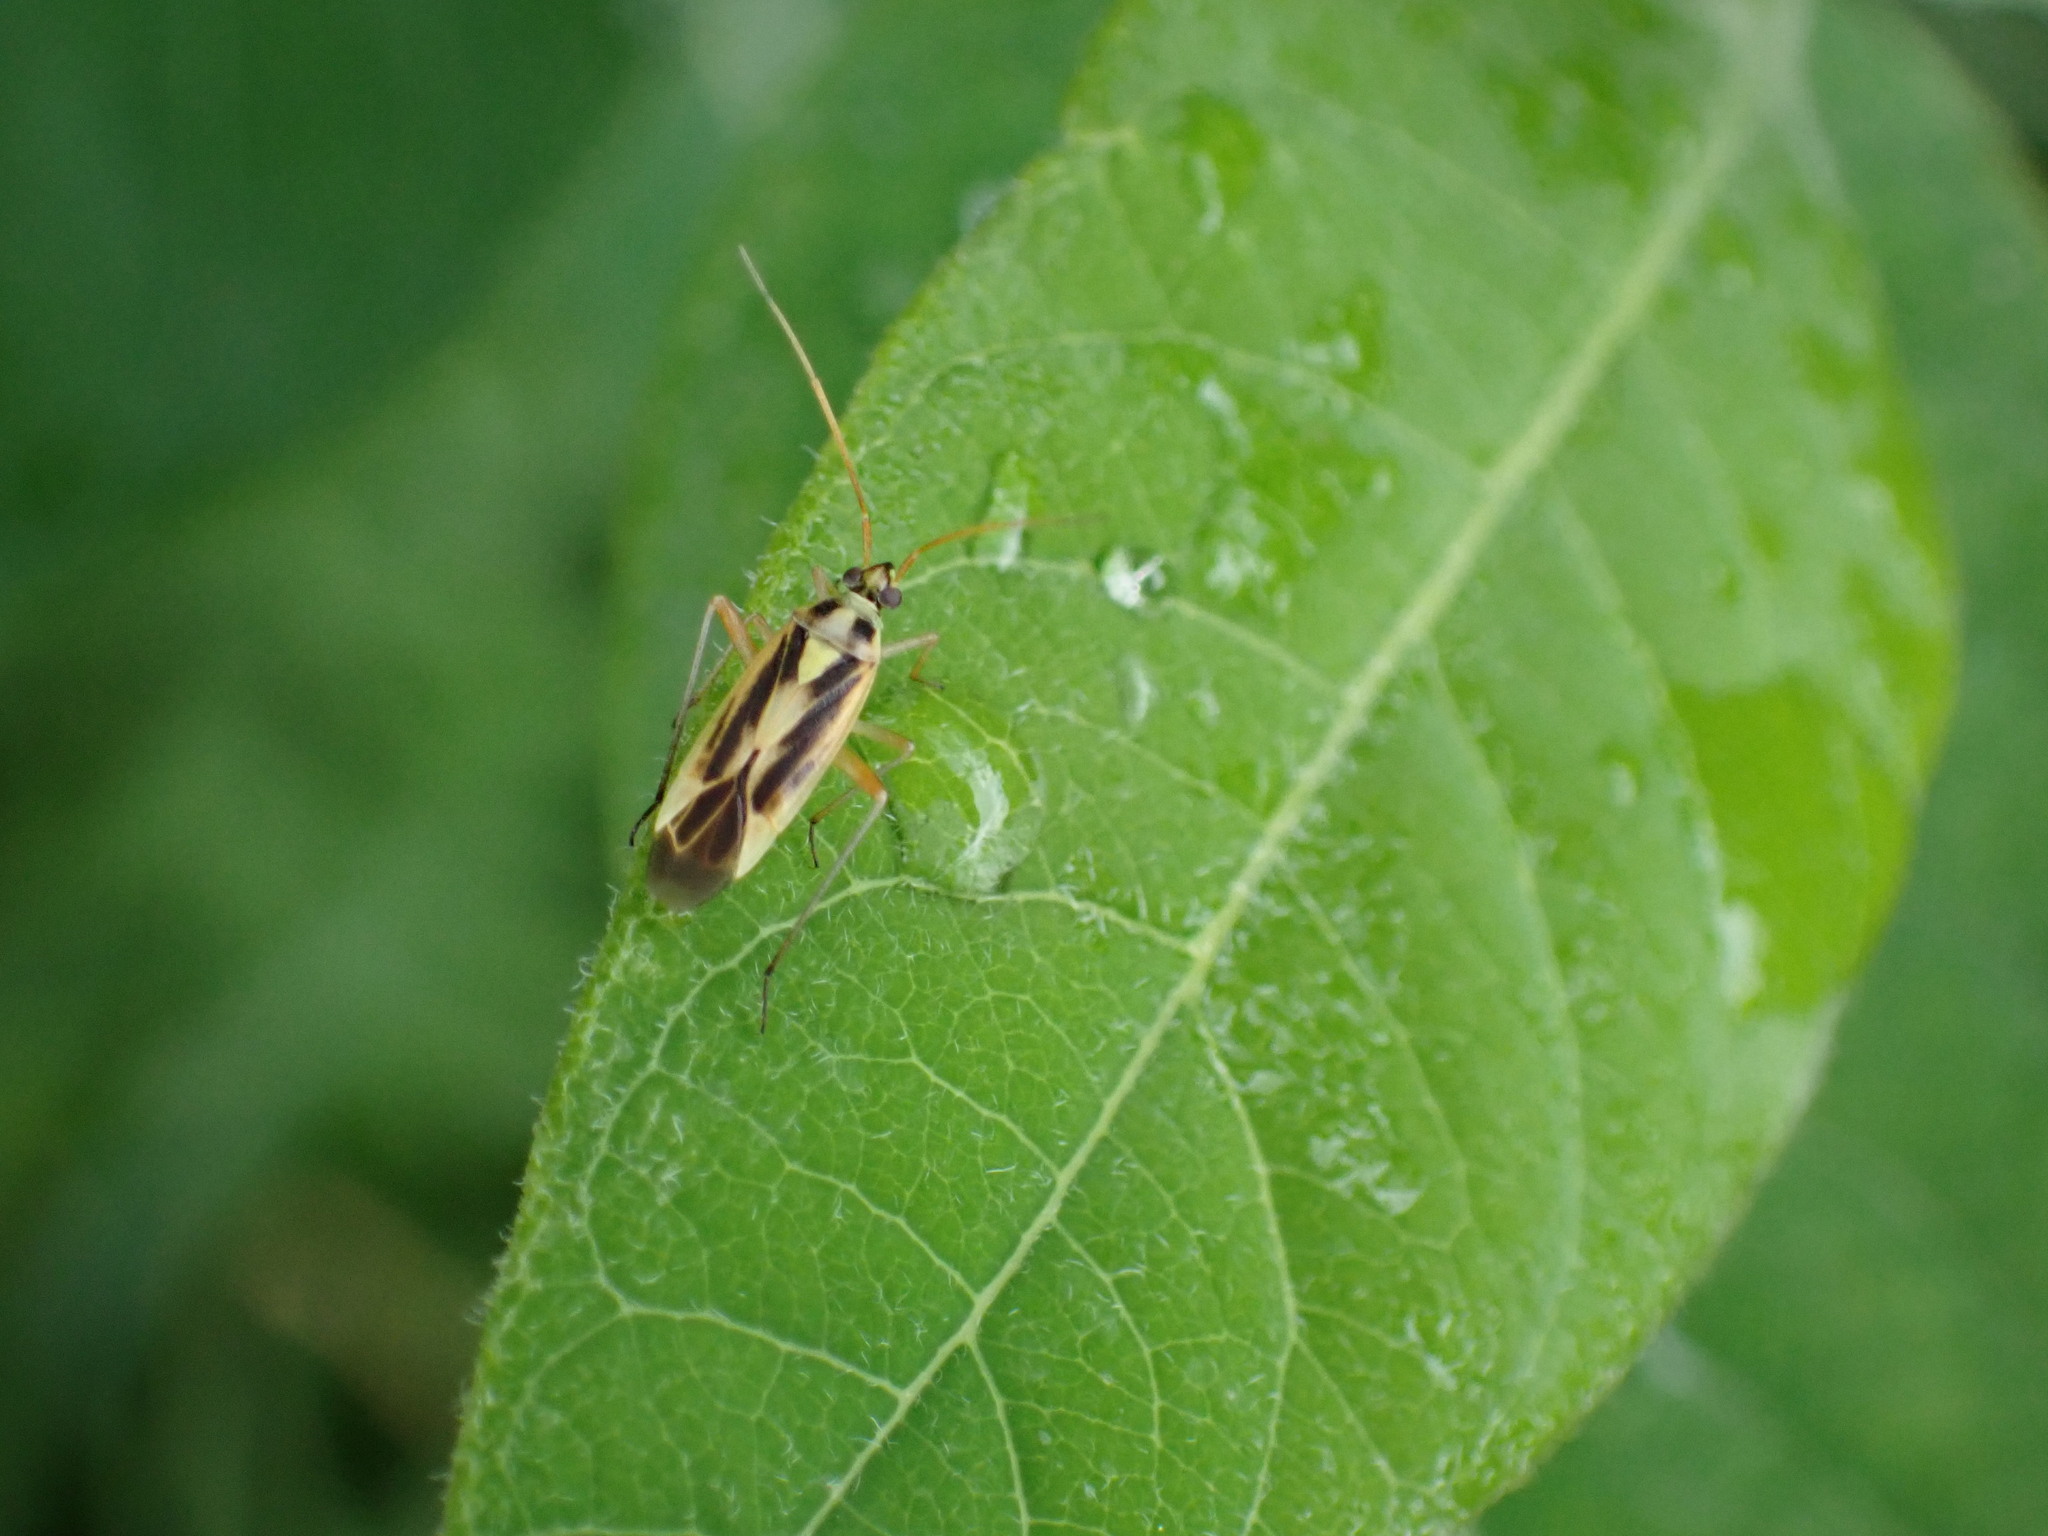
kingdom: Animalia
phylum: Arthropoda
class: Insecta
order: Hemiptera
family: Miridae
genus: Stenotus
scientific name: Stenotus binotatus
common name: Plant bug
